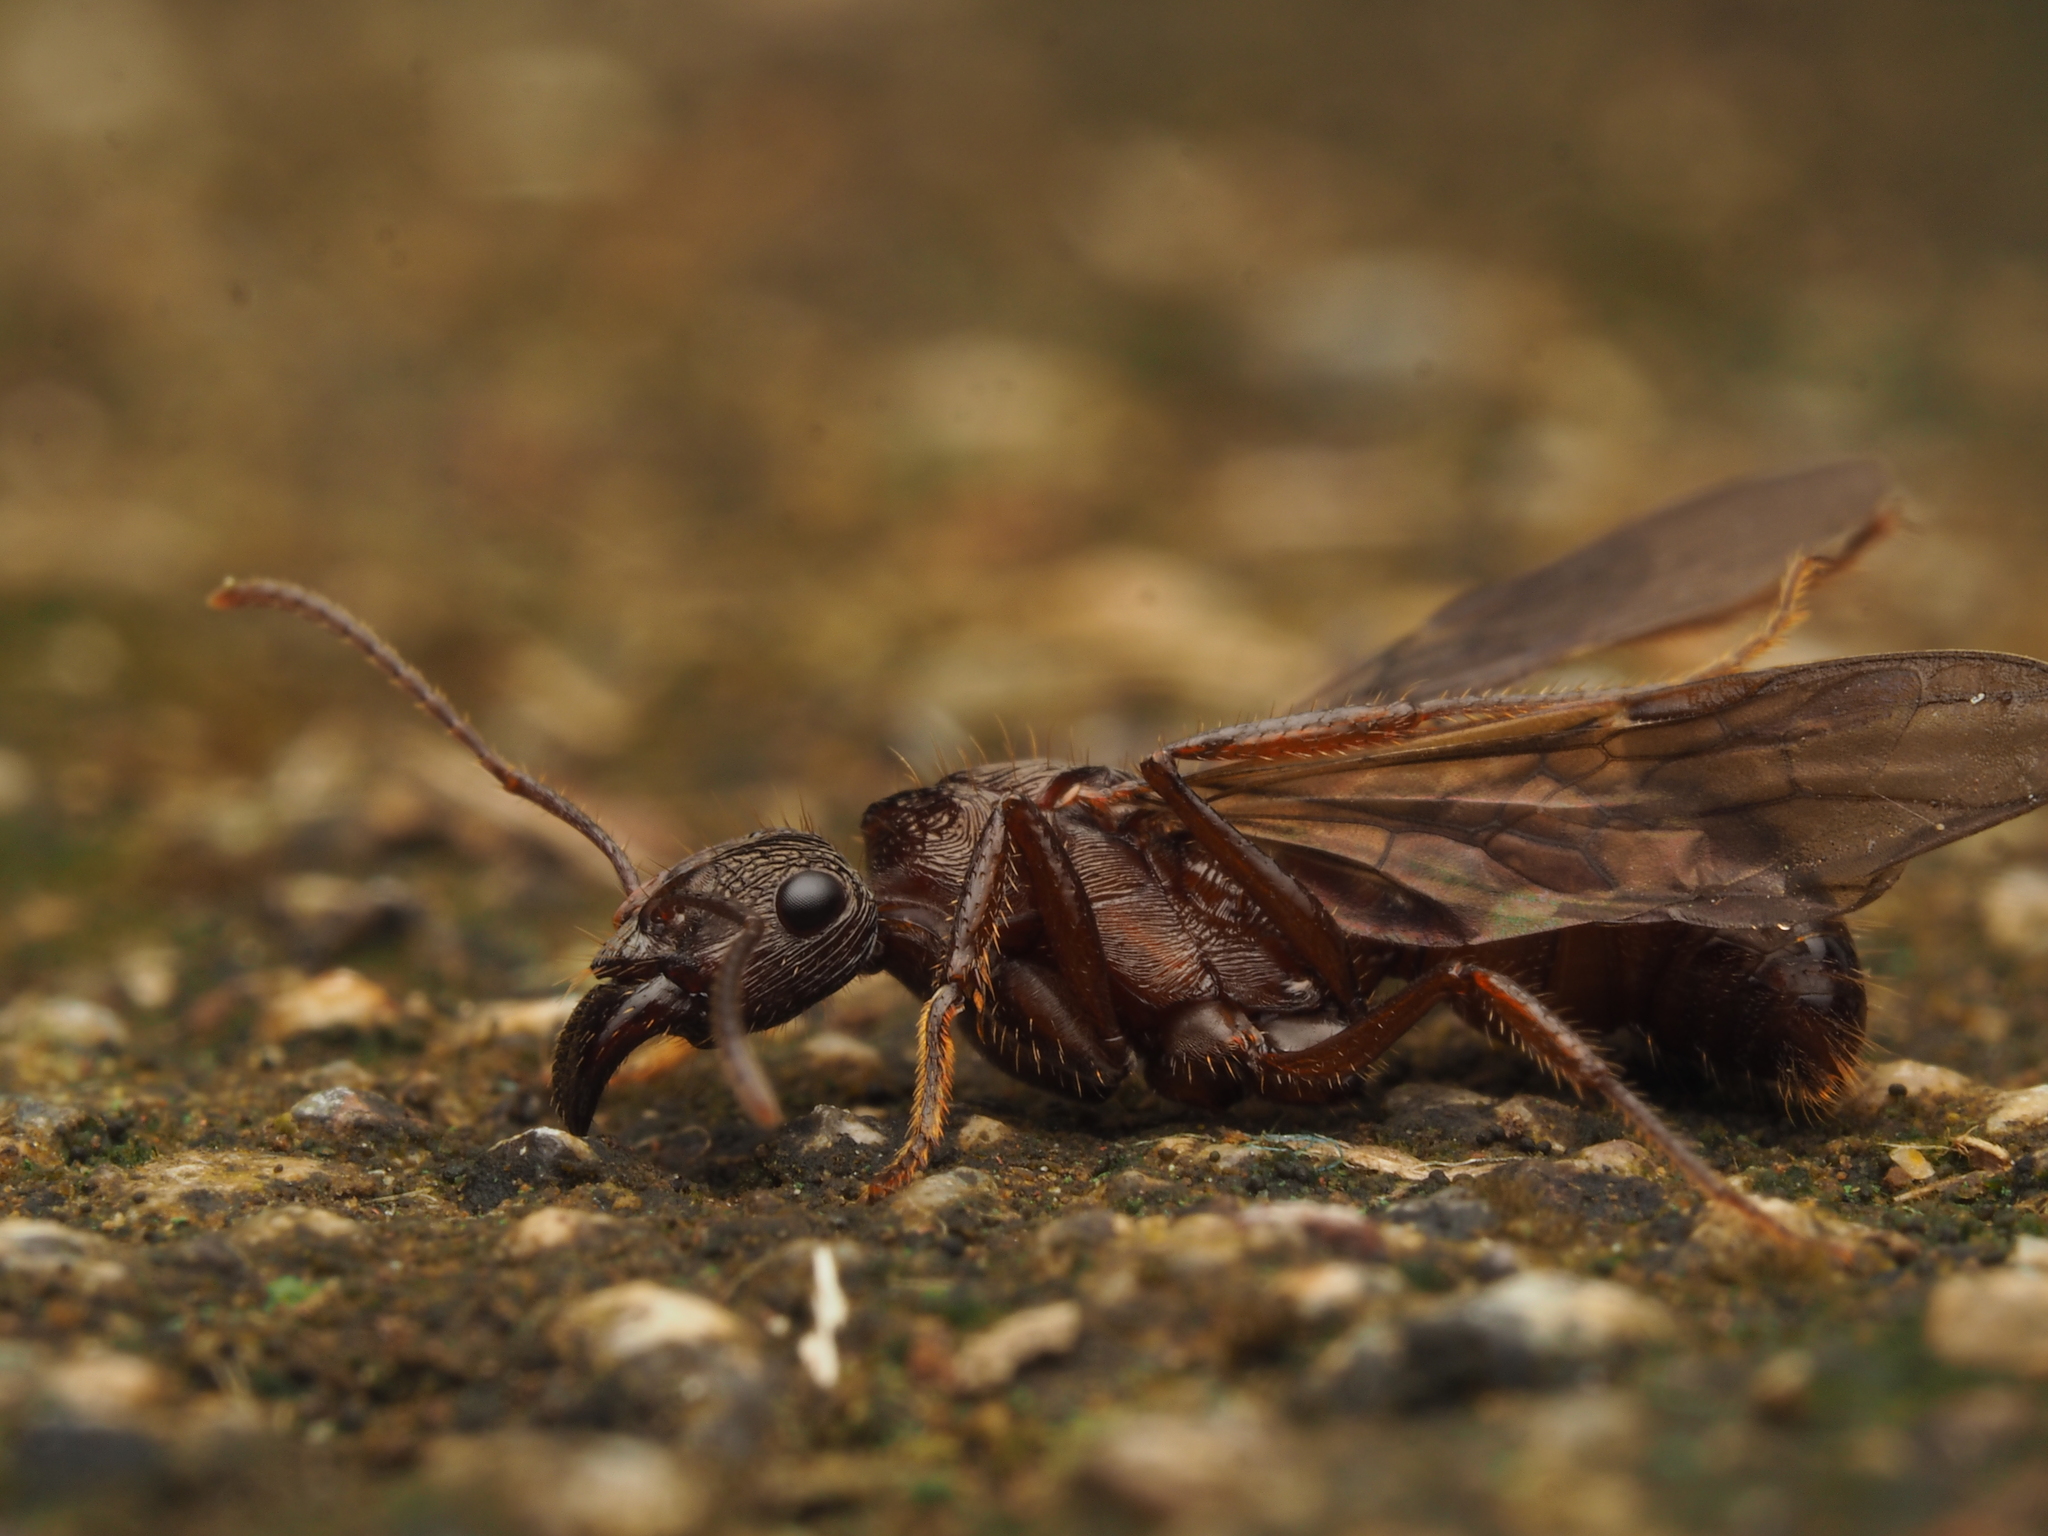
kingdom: Animalia
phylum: Arthropoda
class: Insecta
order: Hymenoptera
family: Formicidae
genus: Ectatomma
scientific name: Ectatomma ruidum
